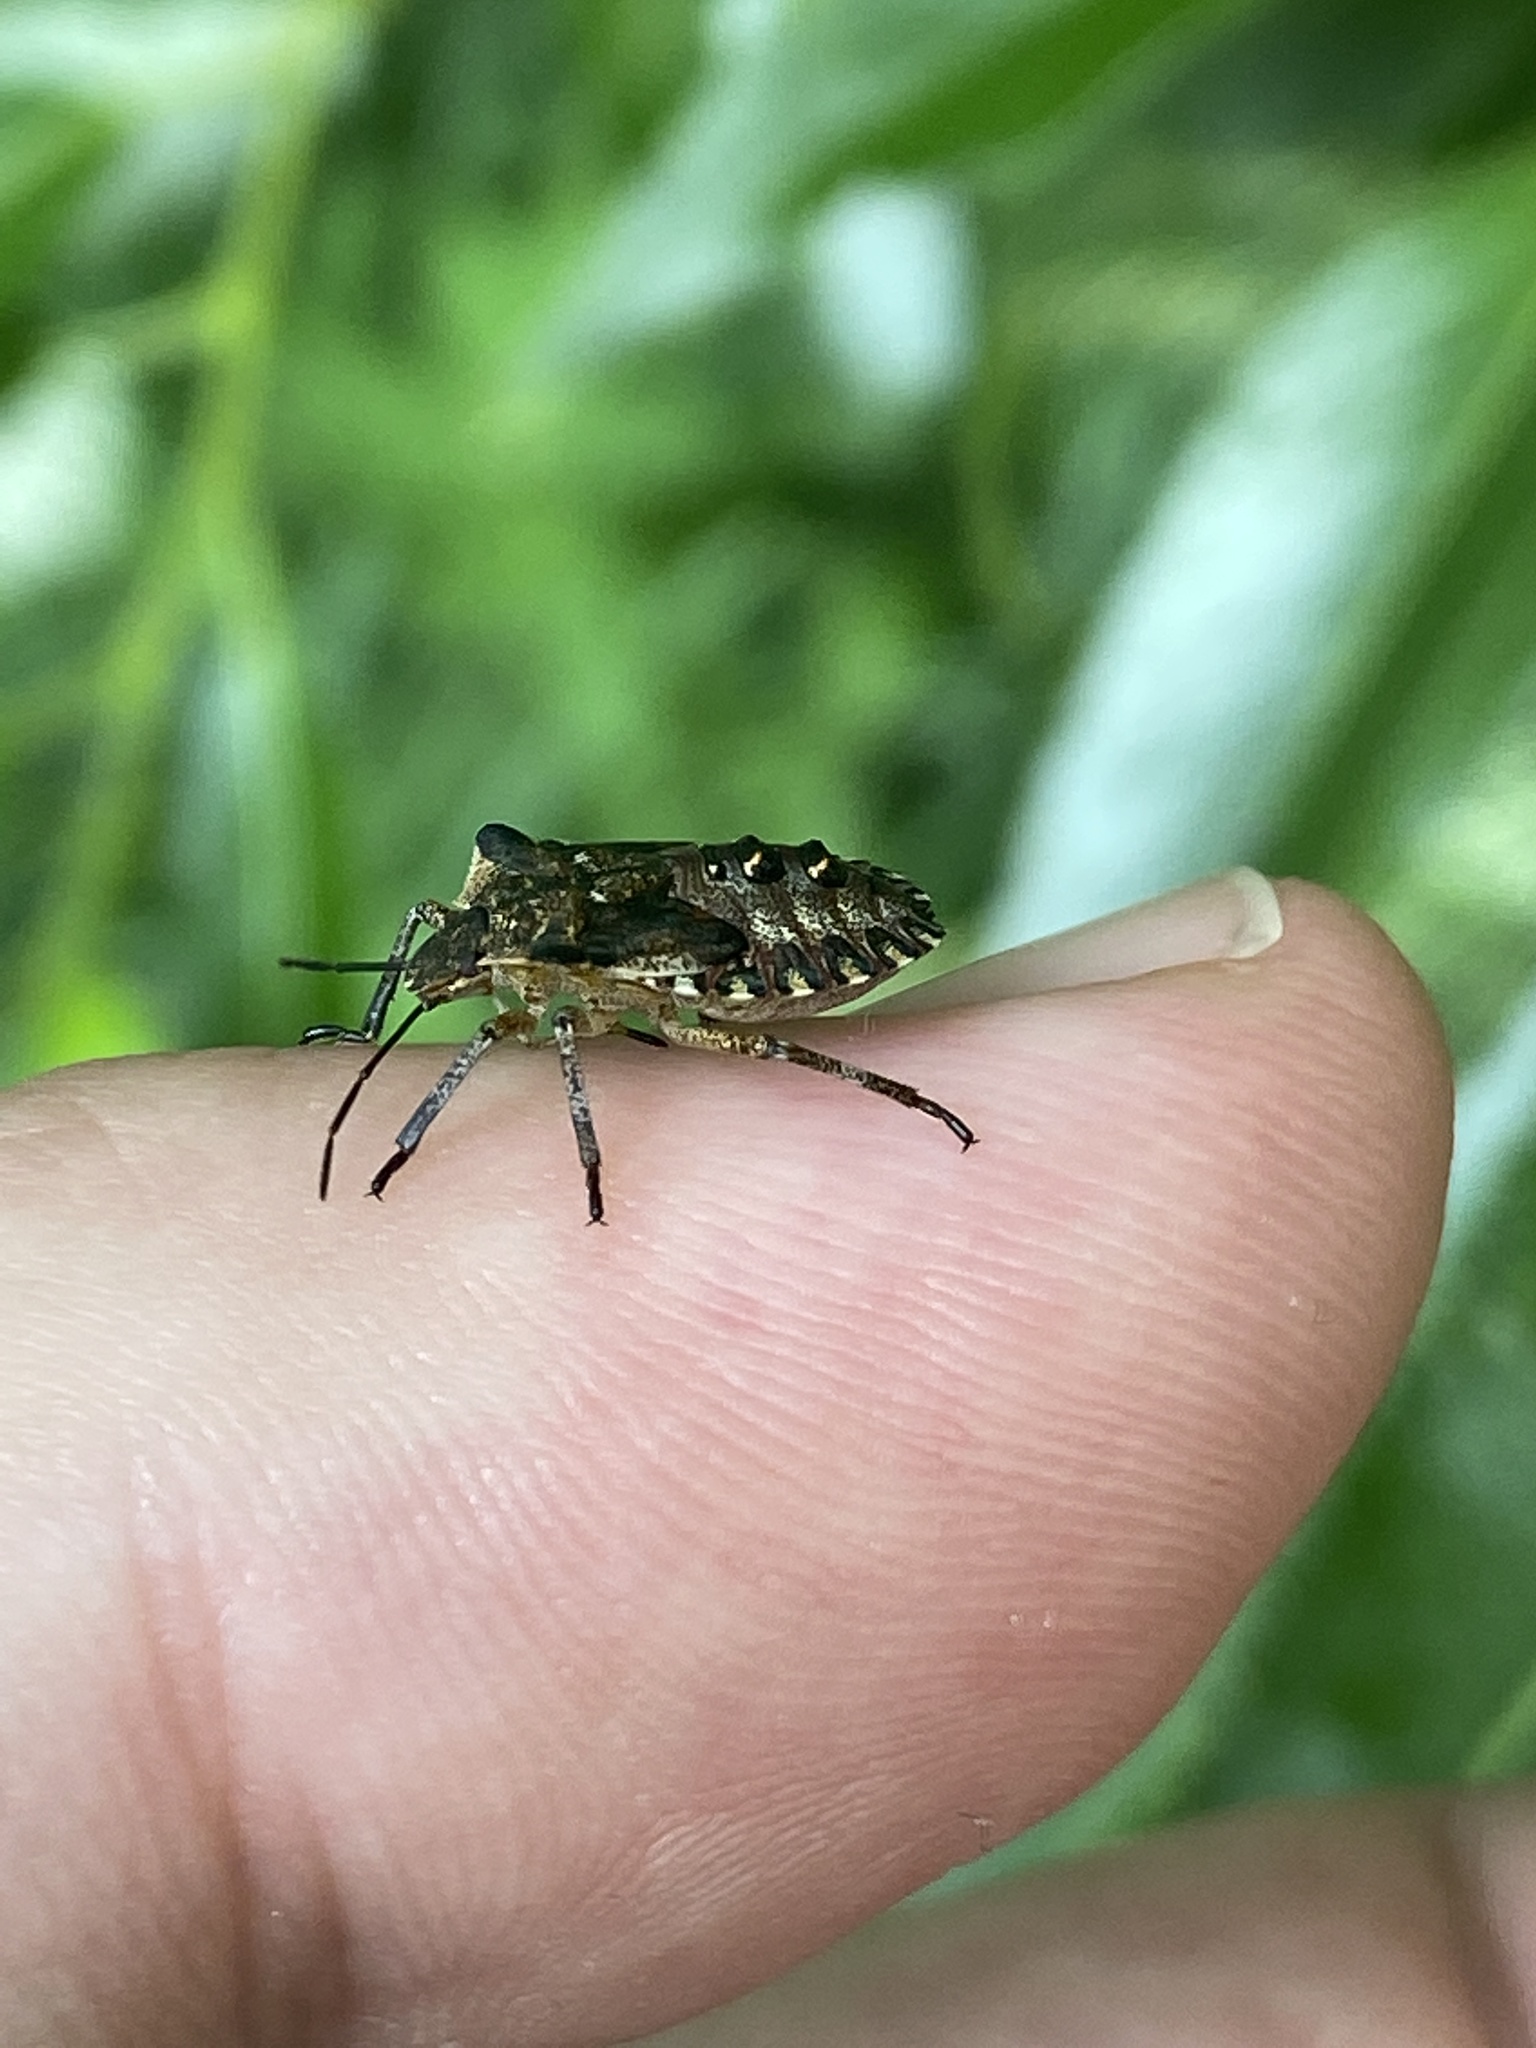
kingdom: Animalia
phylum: Arthropoda
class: Insecta
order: Hemiptera
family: Pentatomidae
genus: Pentatoma
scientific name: Pentatoma rufipes
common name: Forest bug
